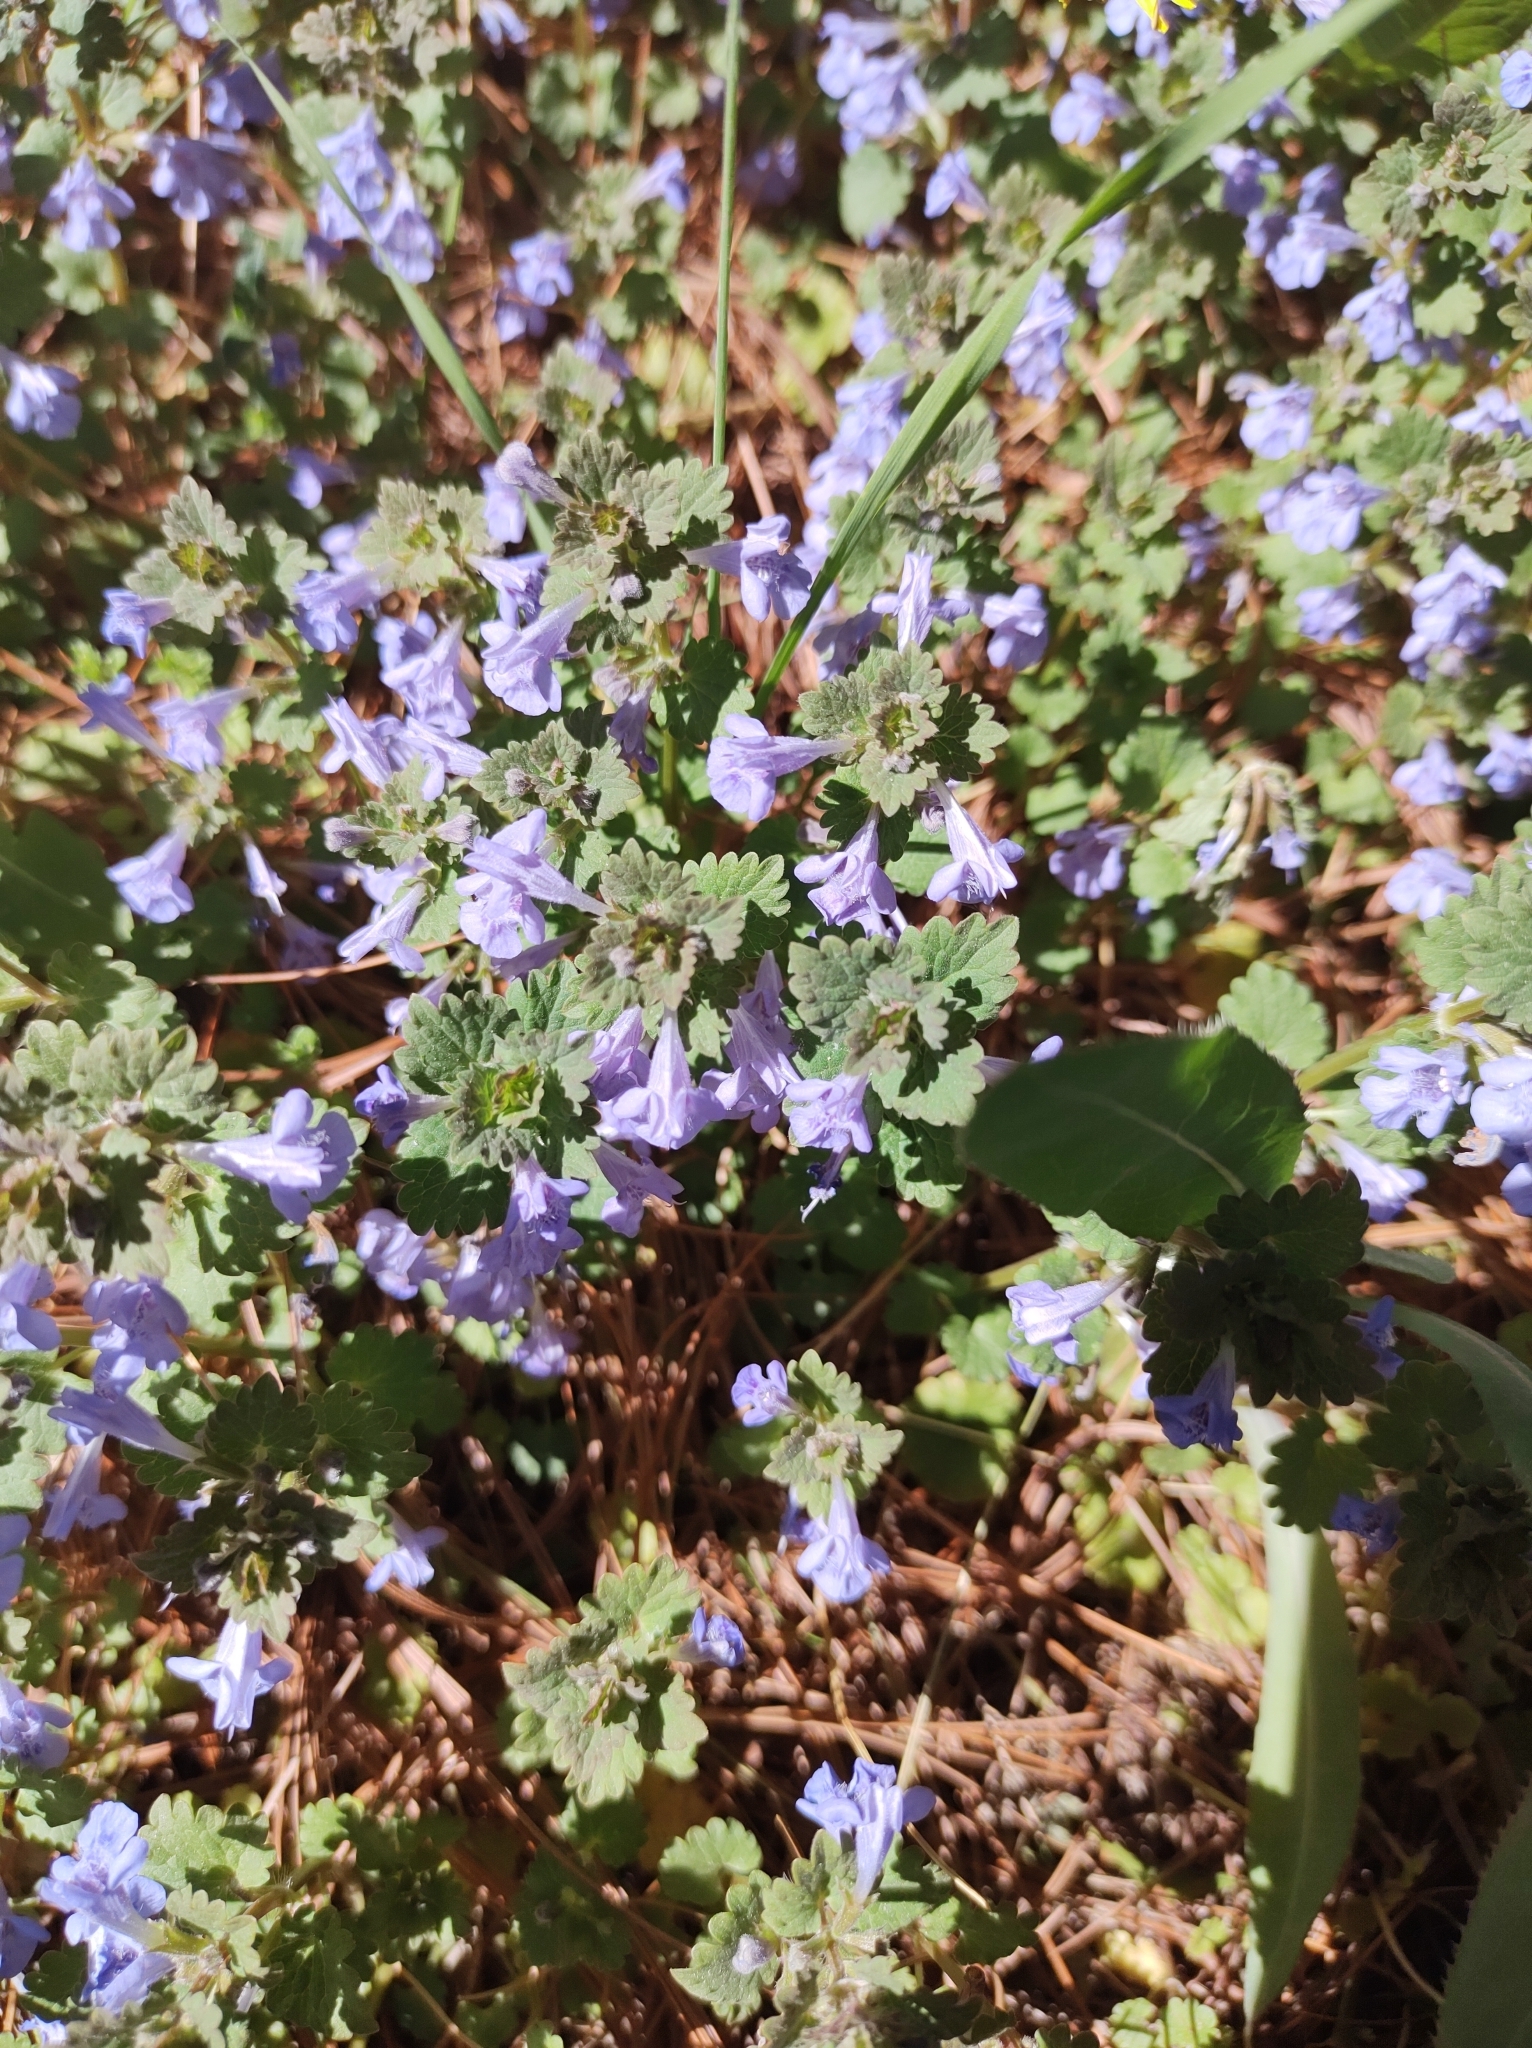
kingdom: Plantae
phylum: Tracheophyta
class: Magnoliopsida
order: Lamiales
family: Lamiaceae
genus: Glechoma
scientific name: Glechoma hederacea
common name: Ground ivy
